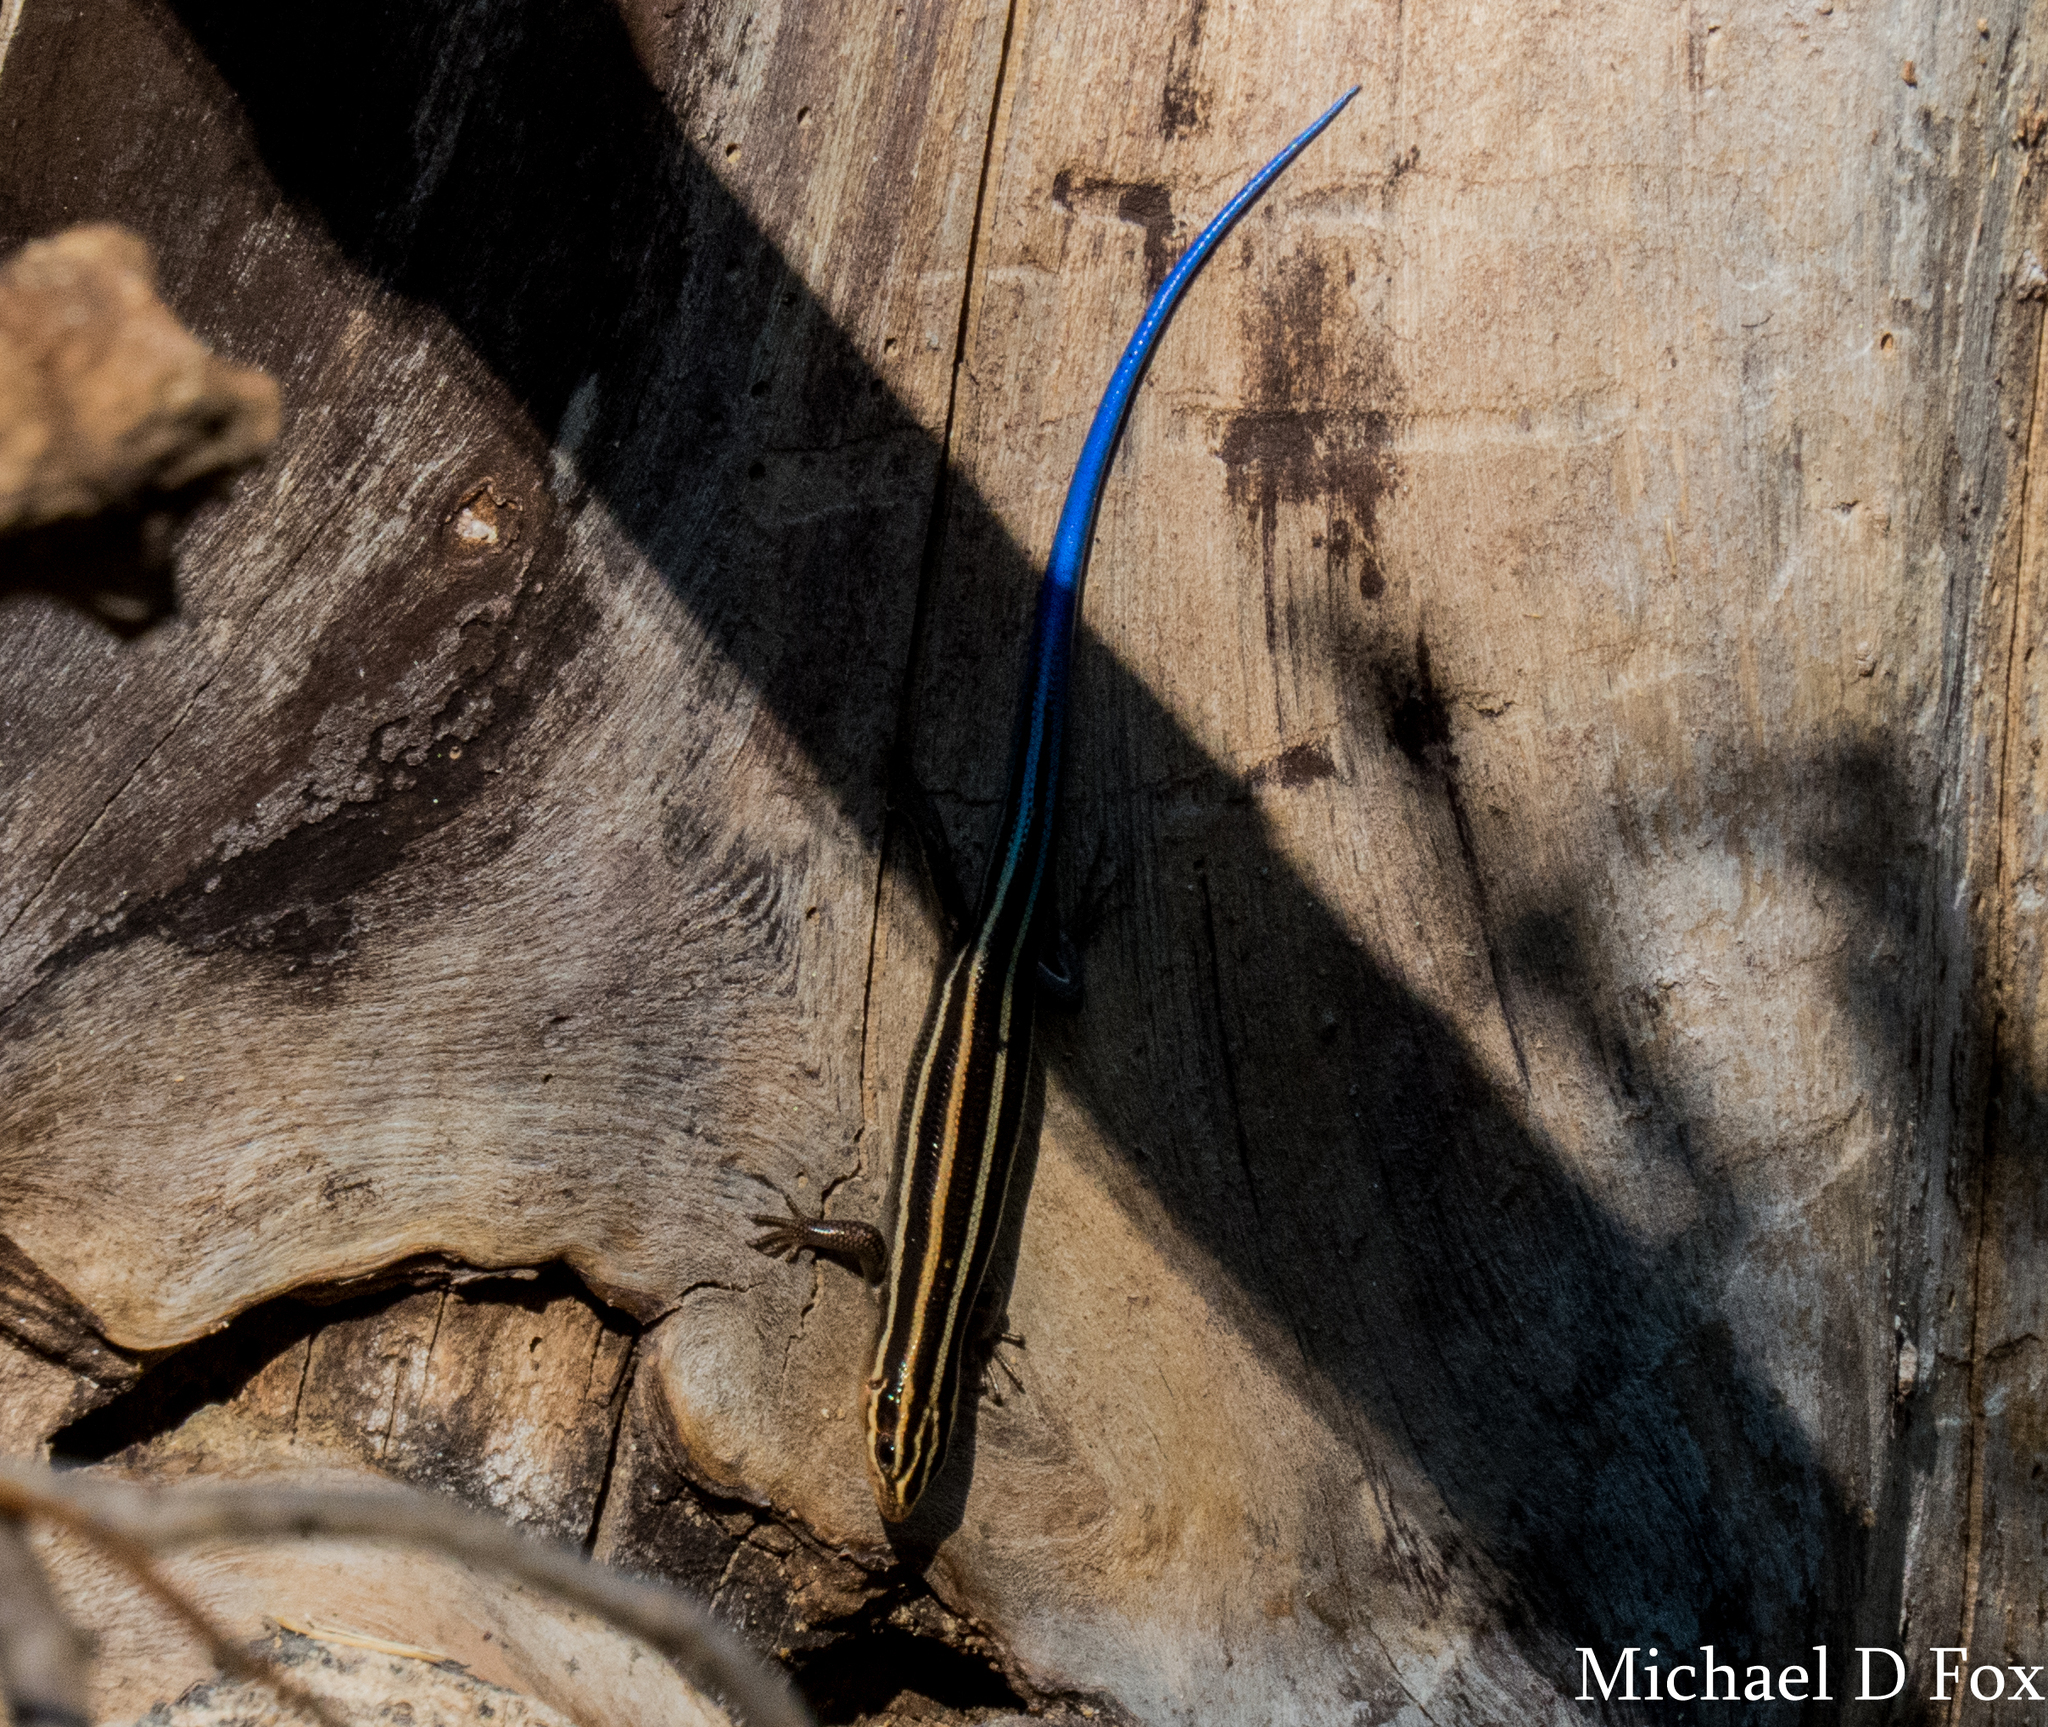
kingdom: Animalia
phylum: Chordata
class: Squamata
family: Scincidae
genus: Plestiodon
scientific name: Plestiodon fasciatus
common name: Five-lined skink
